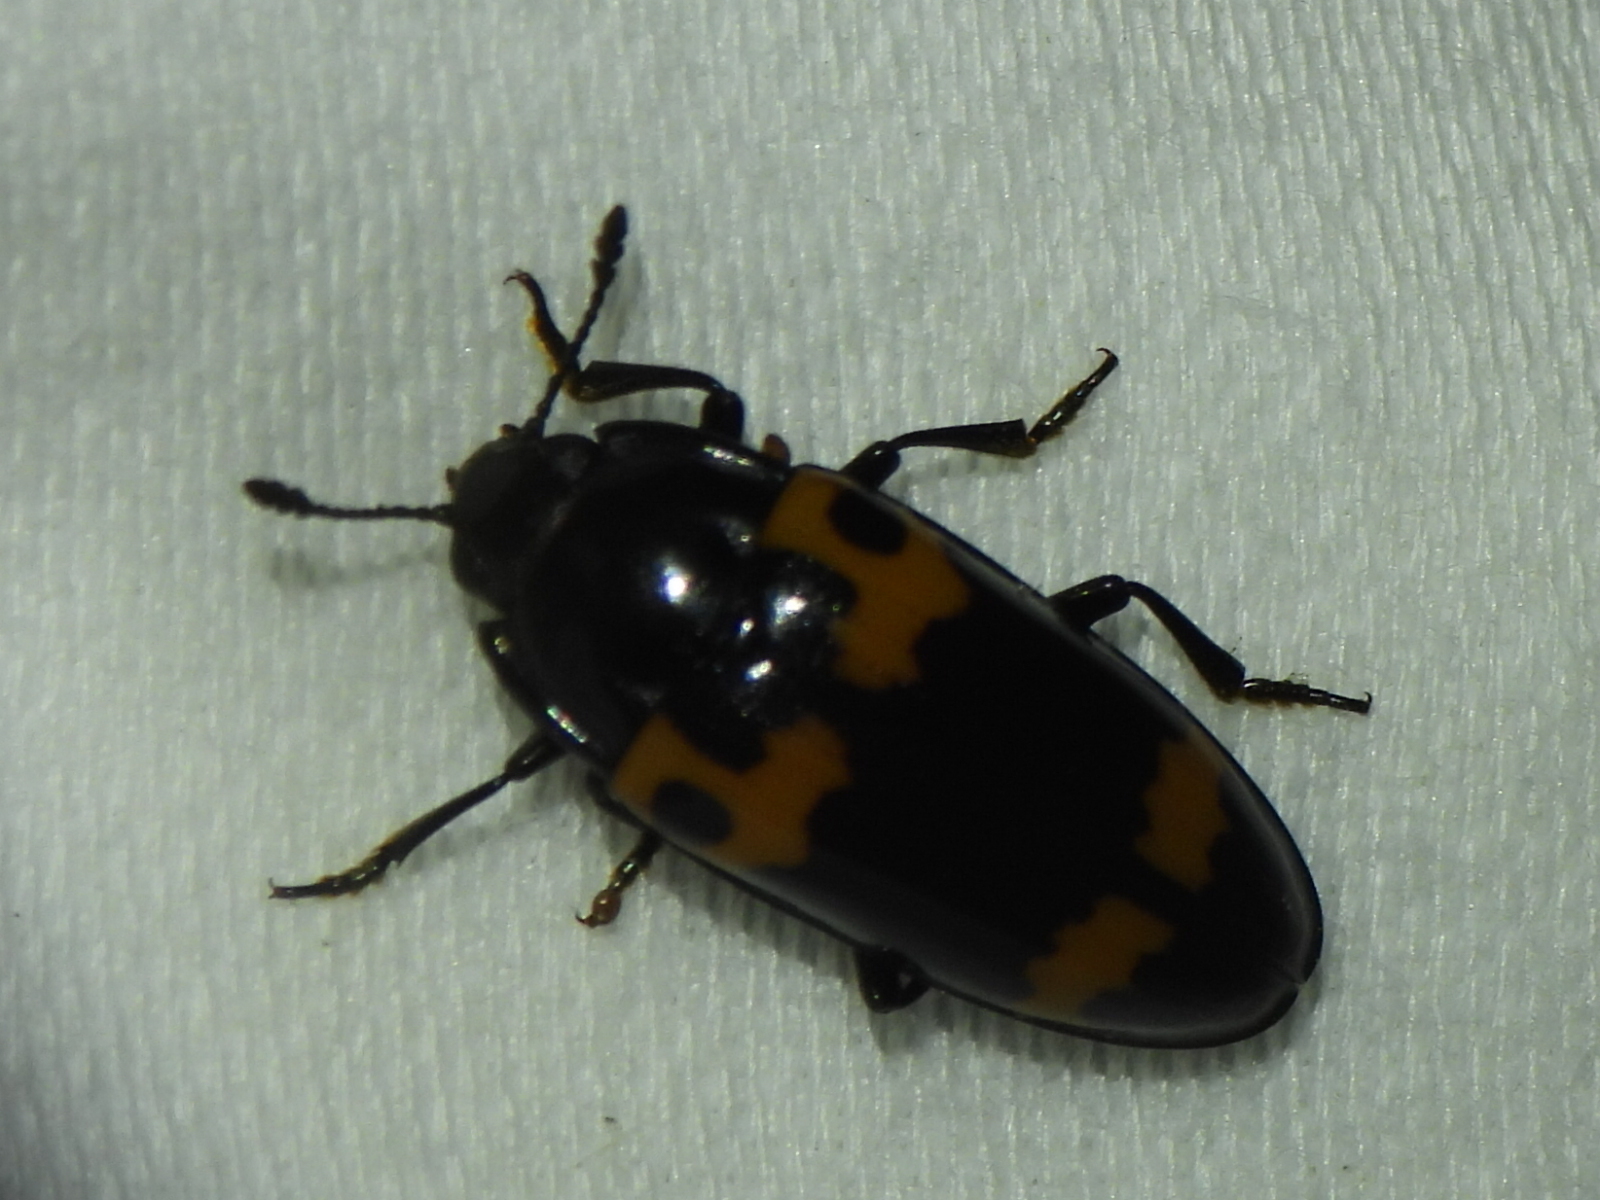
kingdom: Animalia
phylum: Arthropoda
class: Insecta
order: Coleoptera
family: Erotylidae
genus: Megalodacne
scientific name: Megalodacne fasciata
